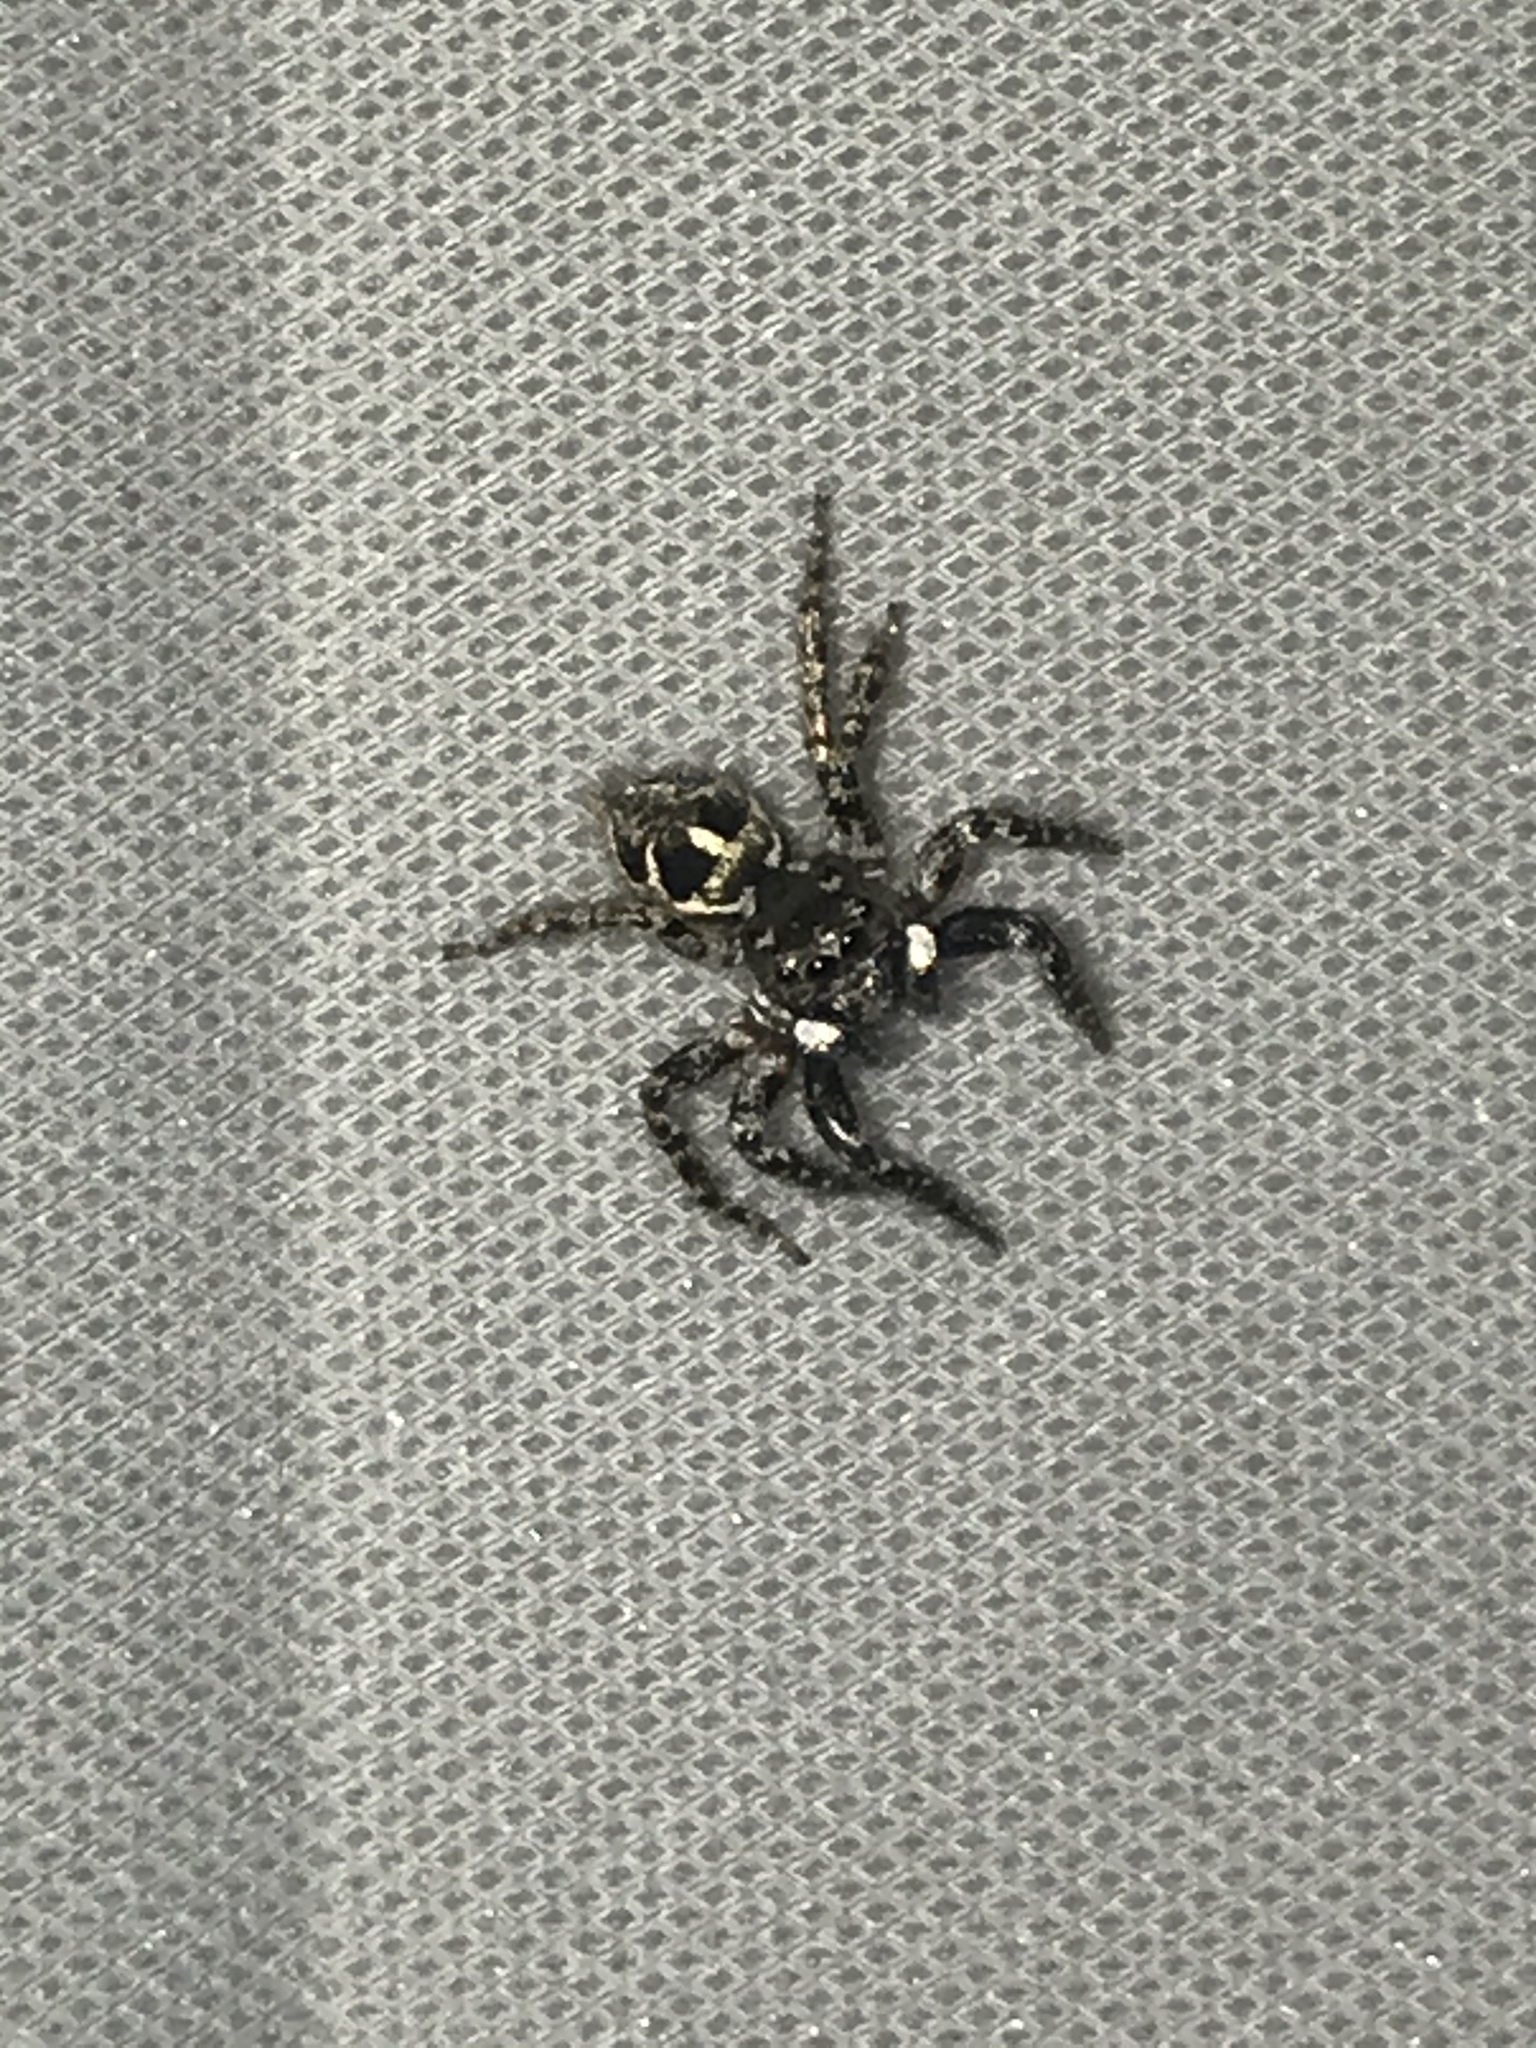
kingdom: Animalia
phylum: Arthropoda
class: Arachnida
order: Araneae
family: Salticidae
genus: Anasaitis
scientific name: Anasaitis canosa
